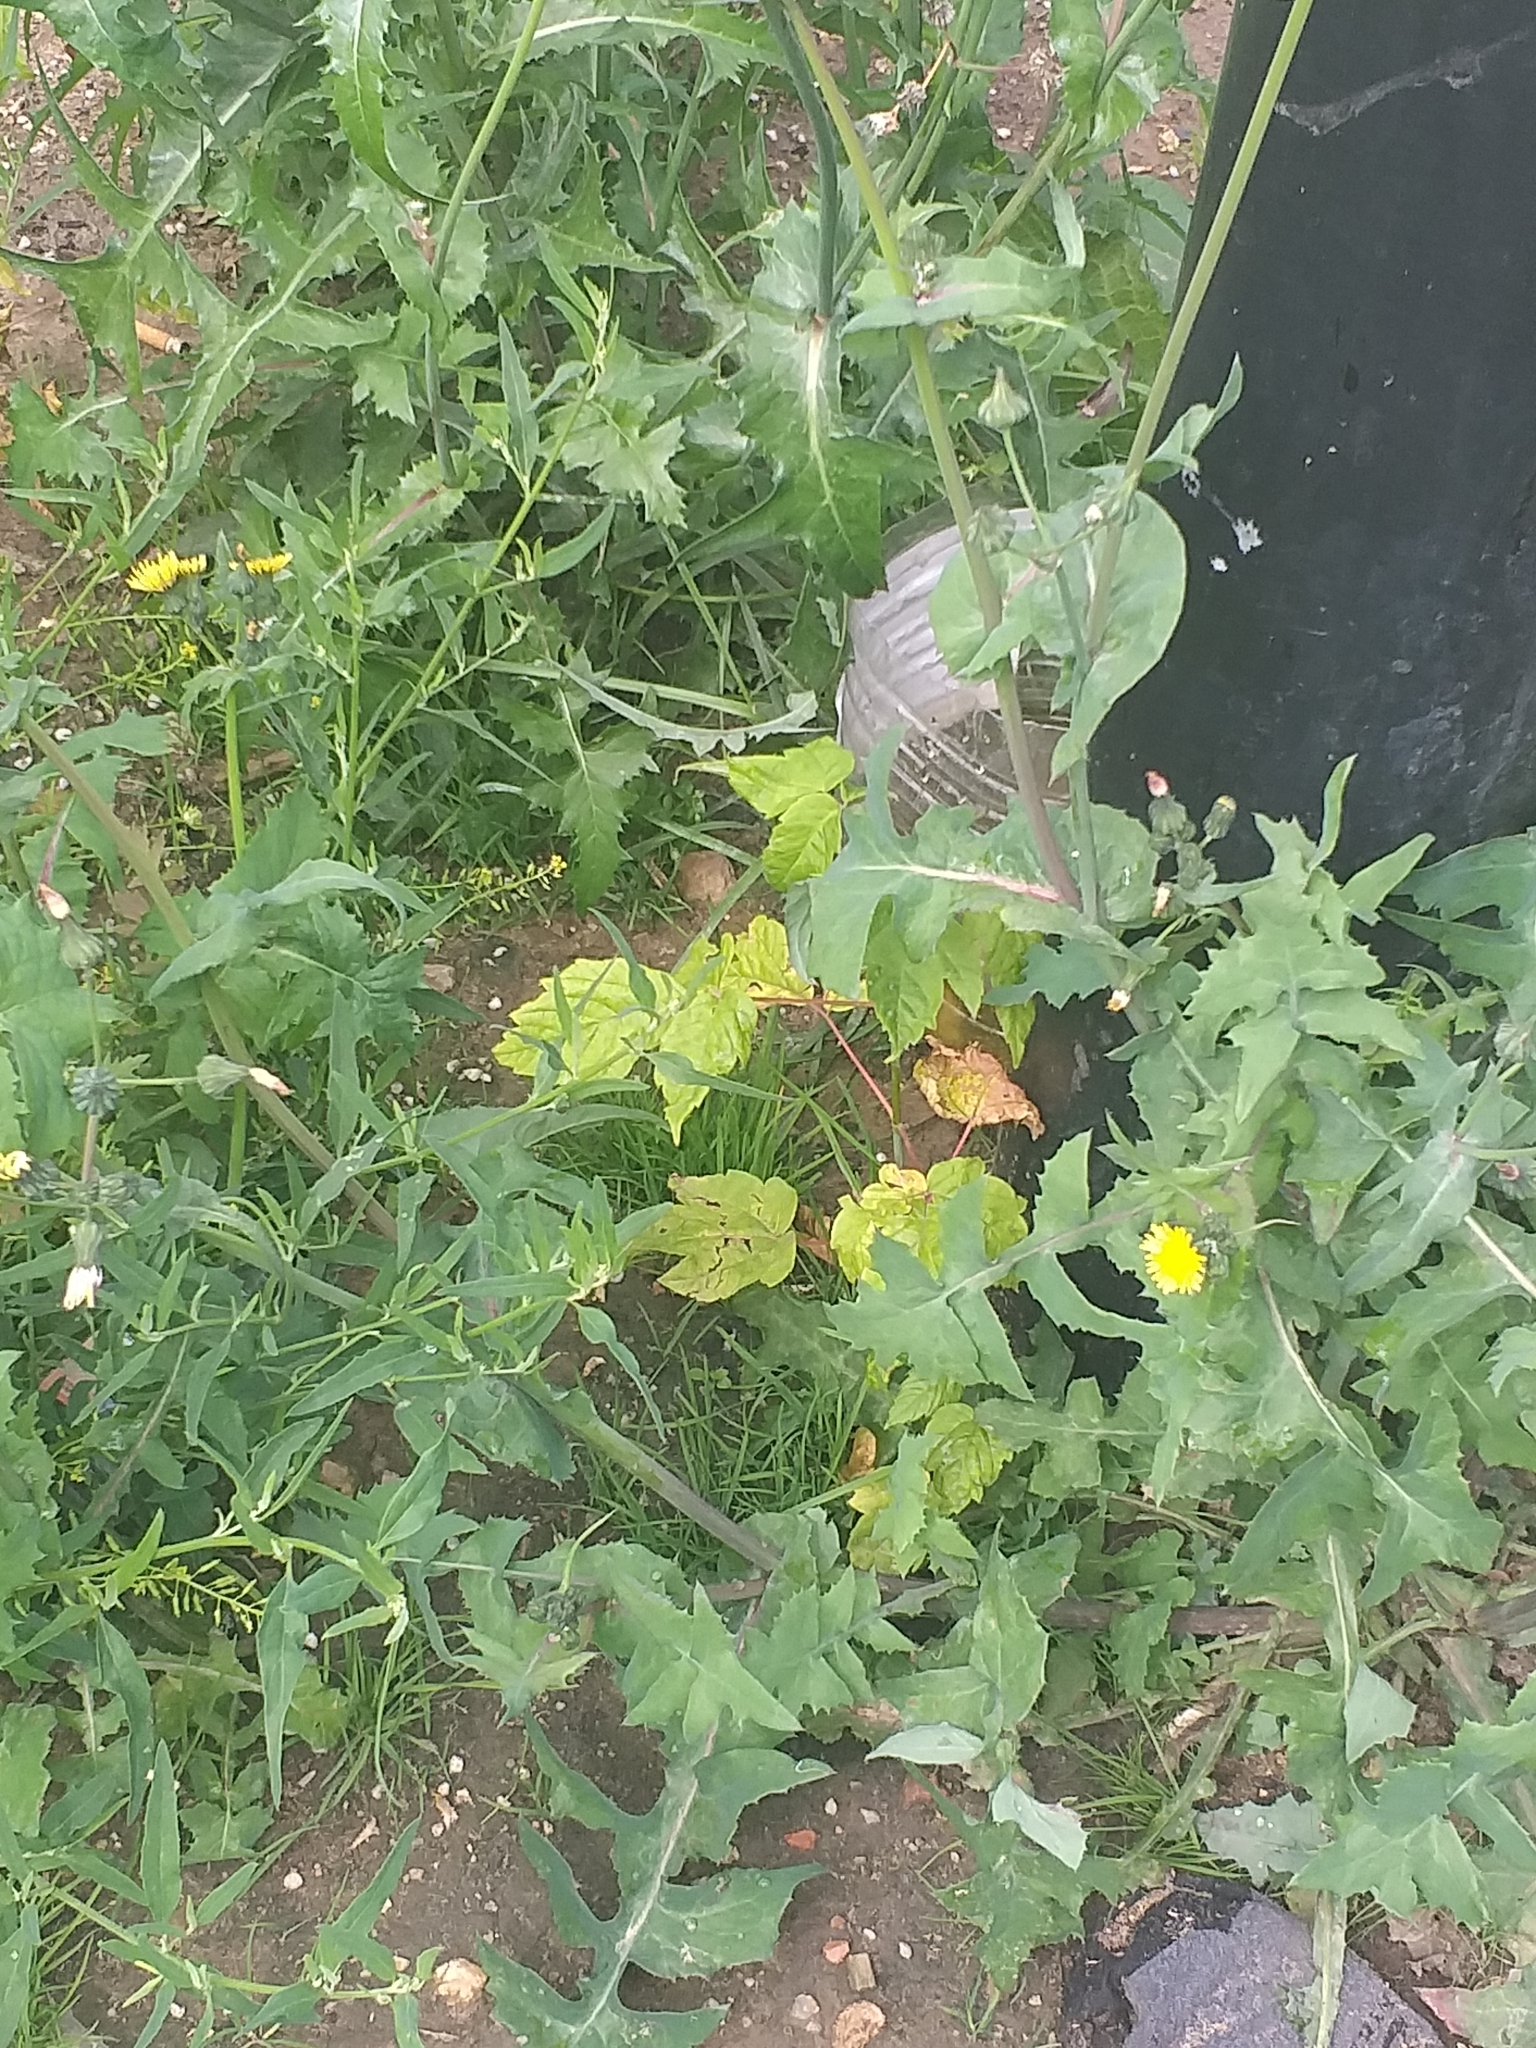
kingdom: Plantae
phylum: Tracheophyta
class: Magnoliopsida
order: Sapindales
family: Sapindaceae
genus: Acer
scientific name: Acer negundo
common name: Ashleaf maple
